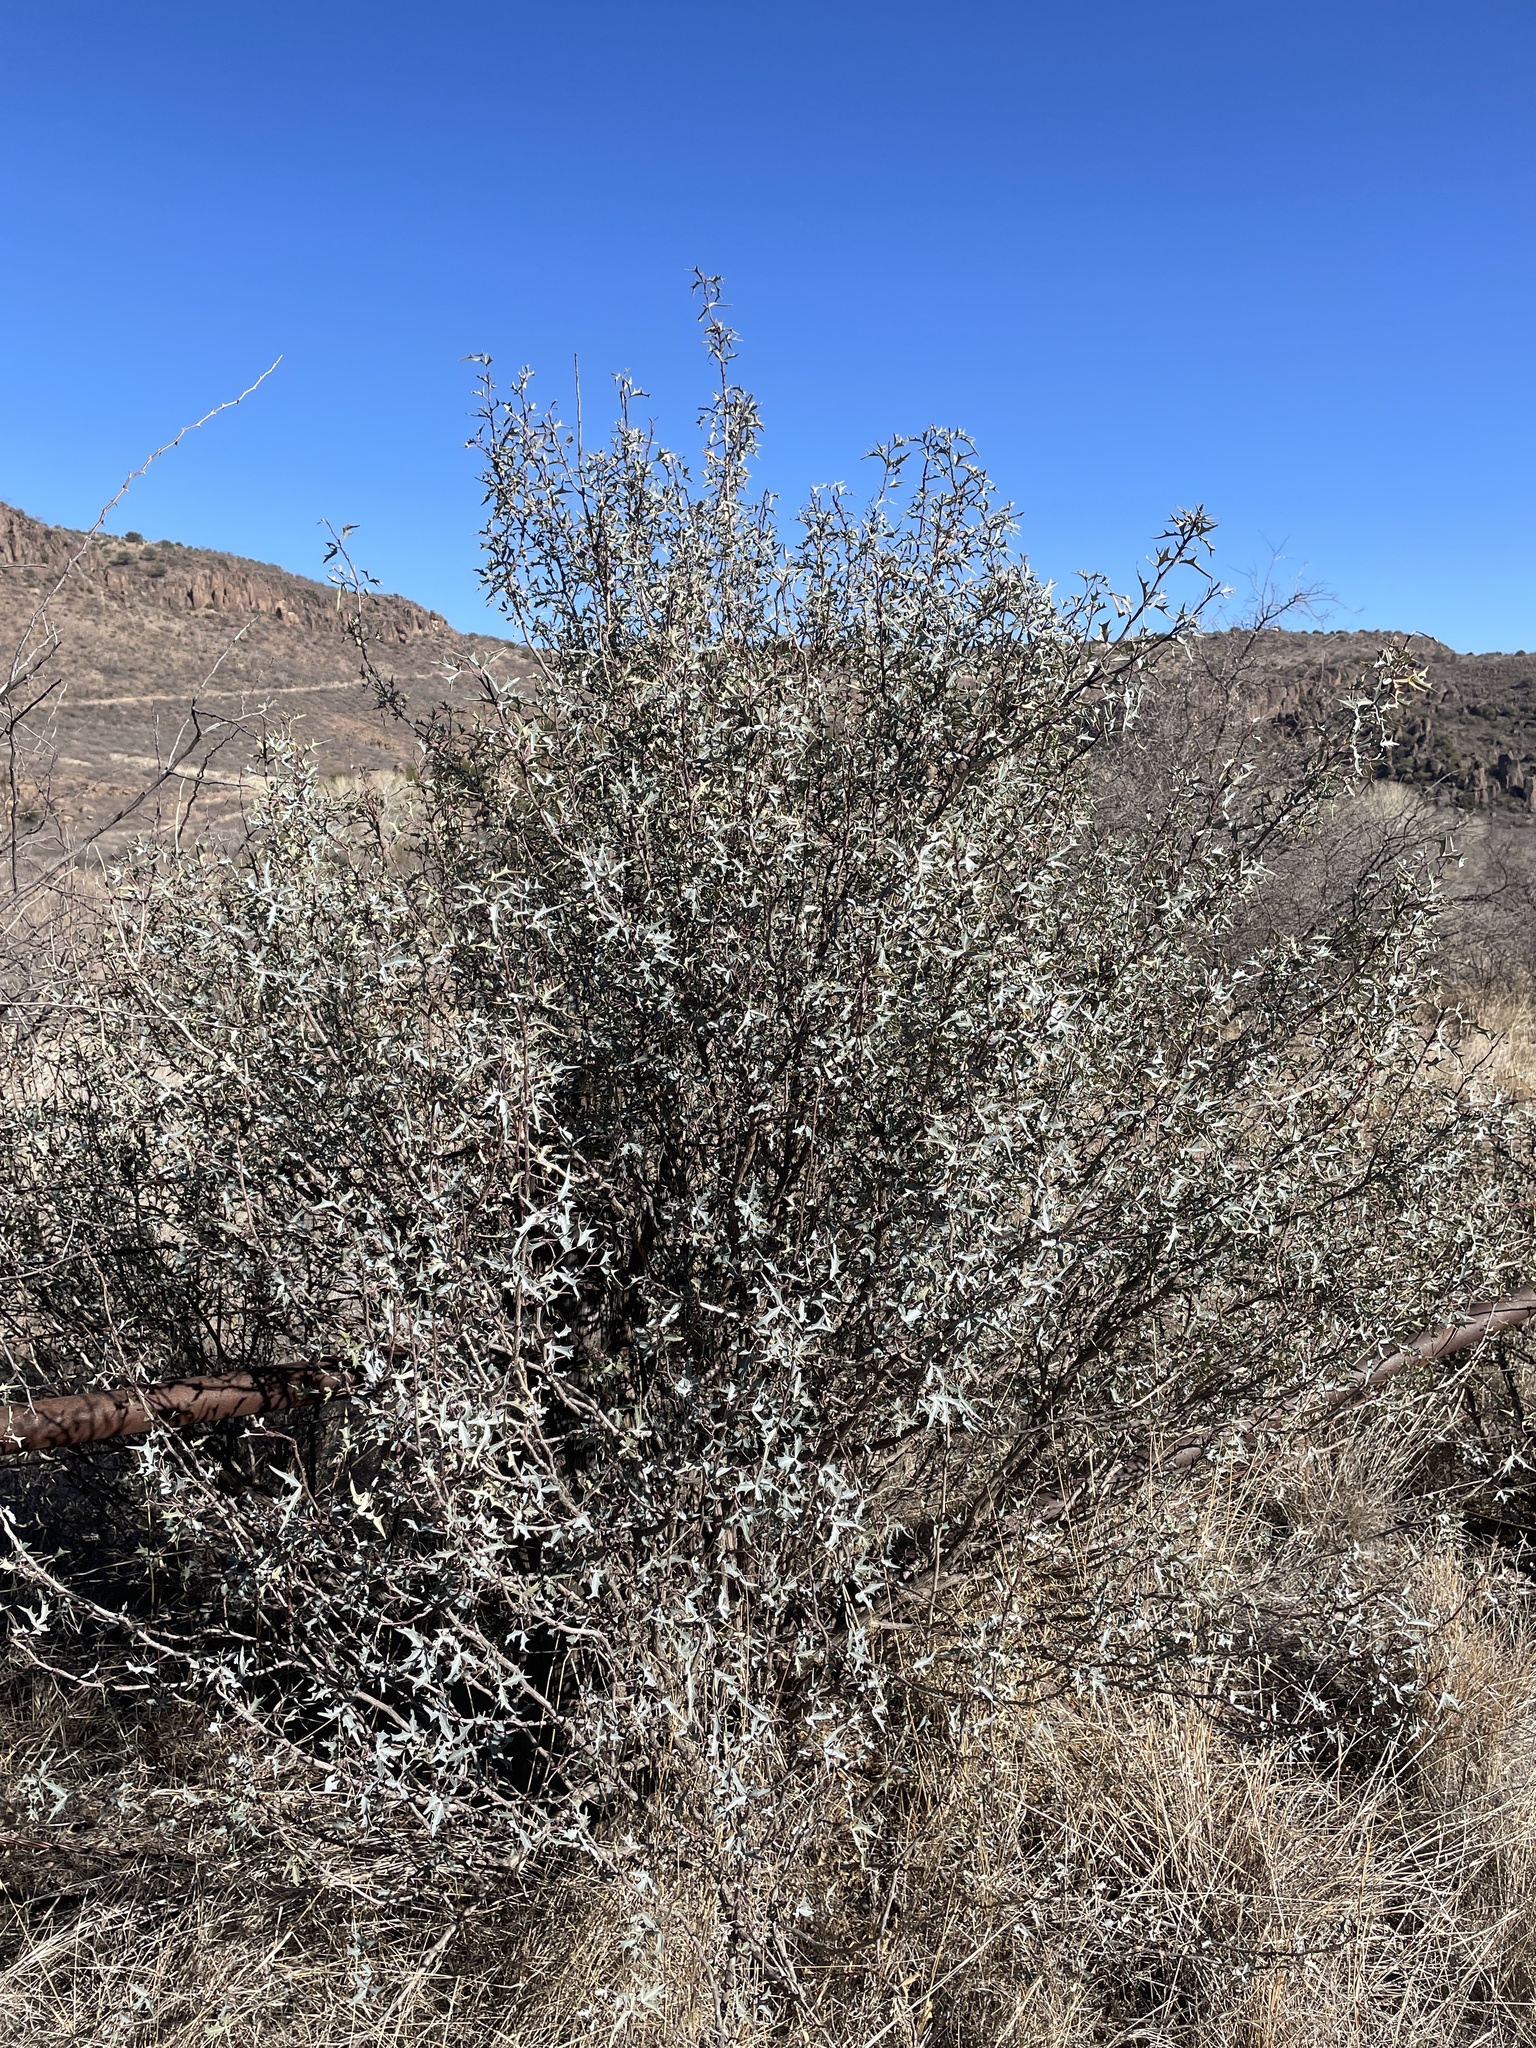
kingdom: Plantae
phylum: Tracheophyta
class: Magnoliopsida
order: Ranunculales
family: Berberidaceae
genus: Alloberberis
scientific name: Alloberberis trifoliolata
